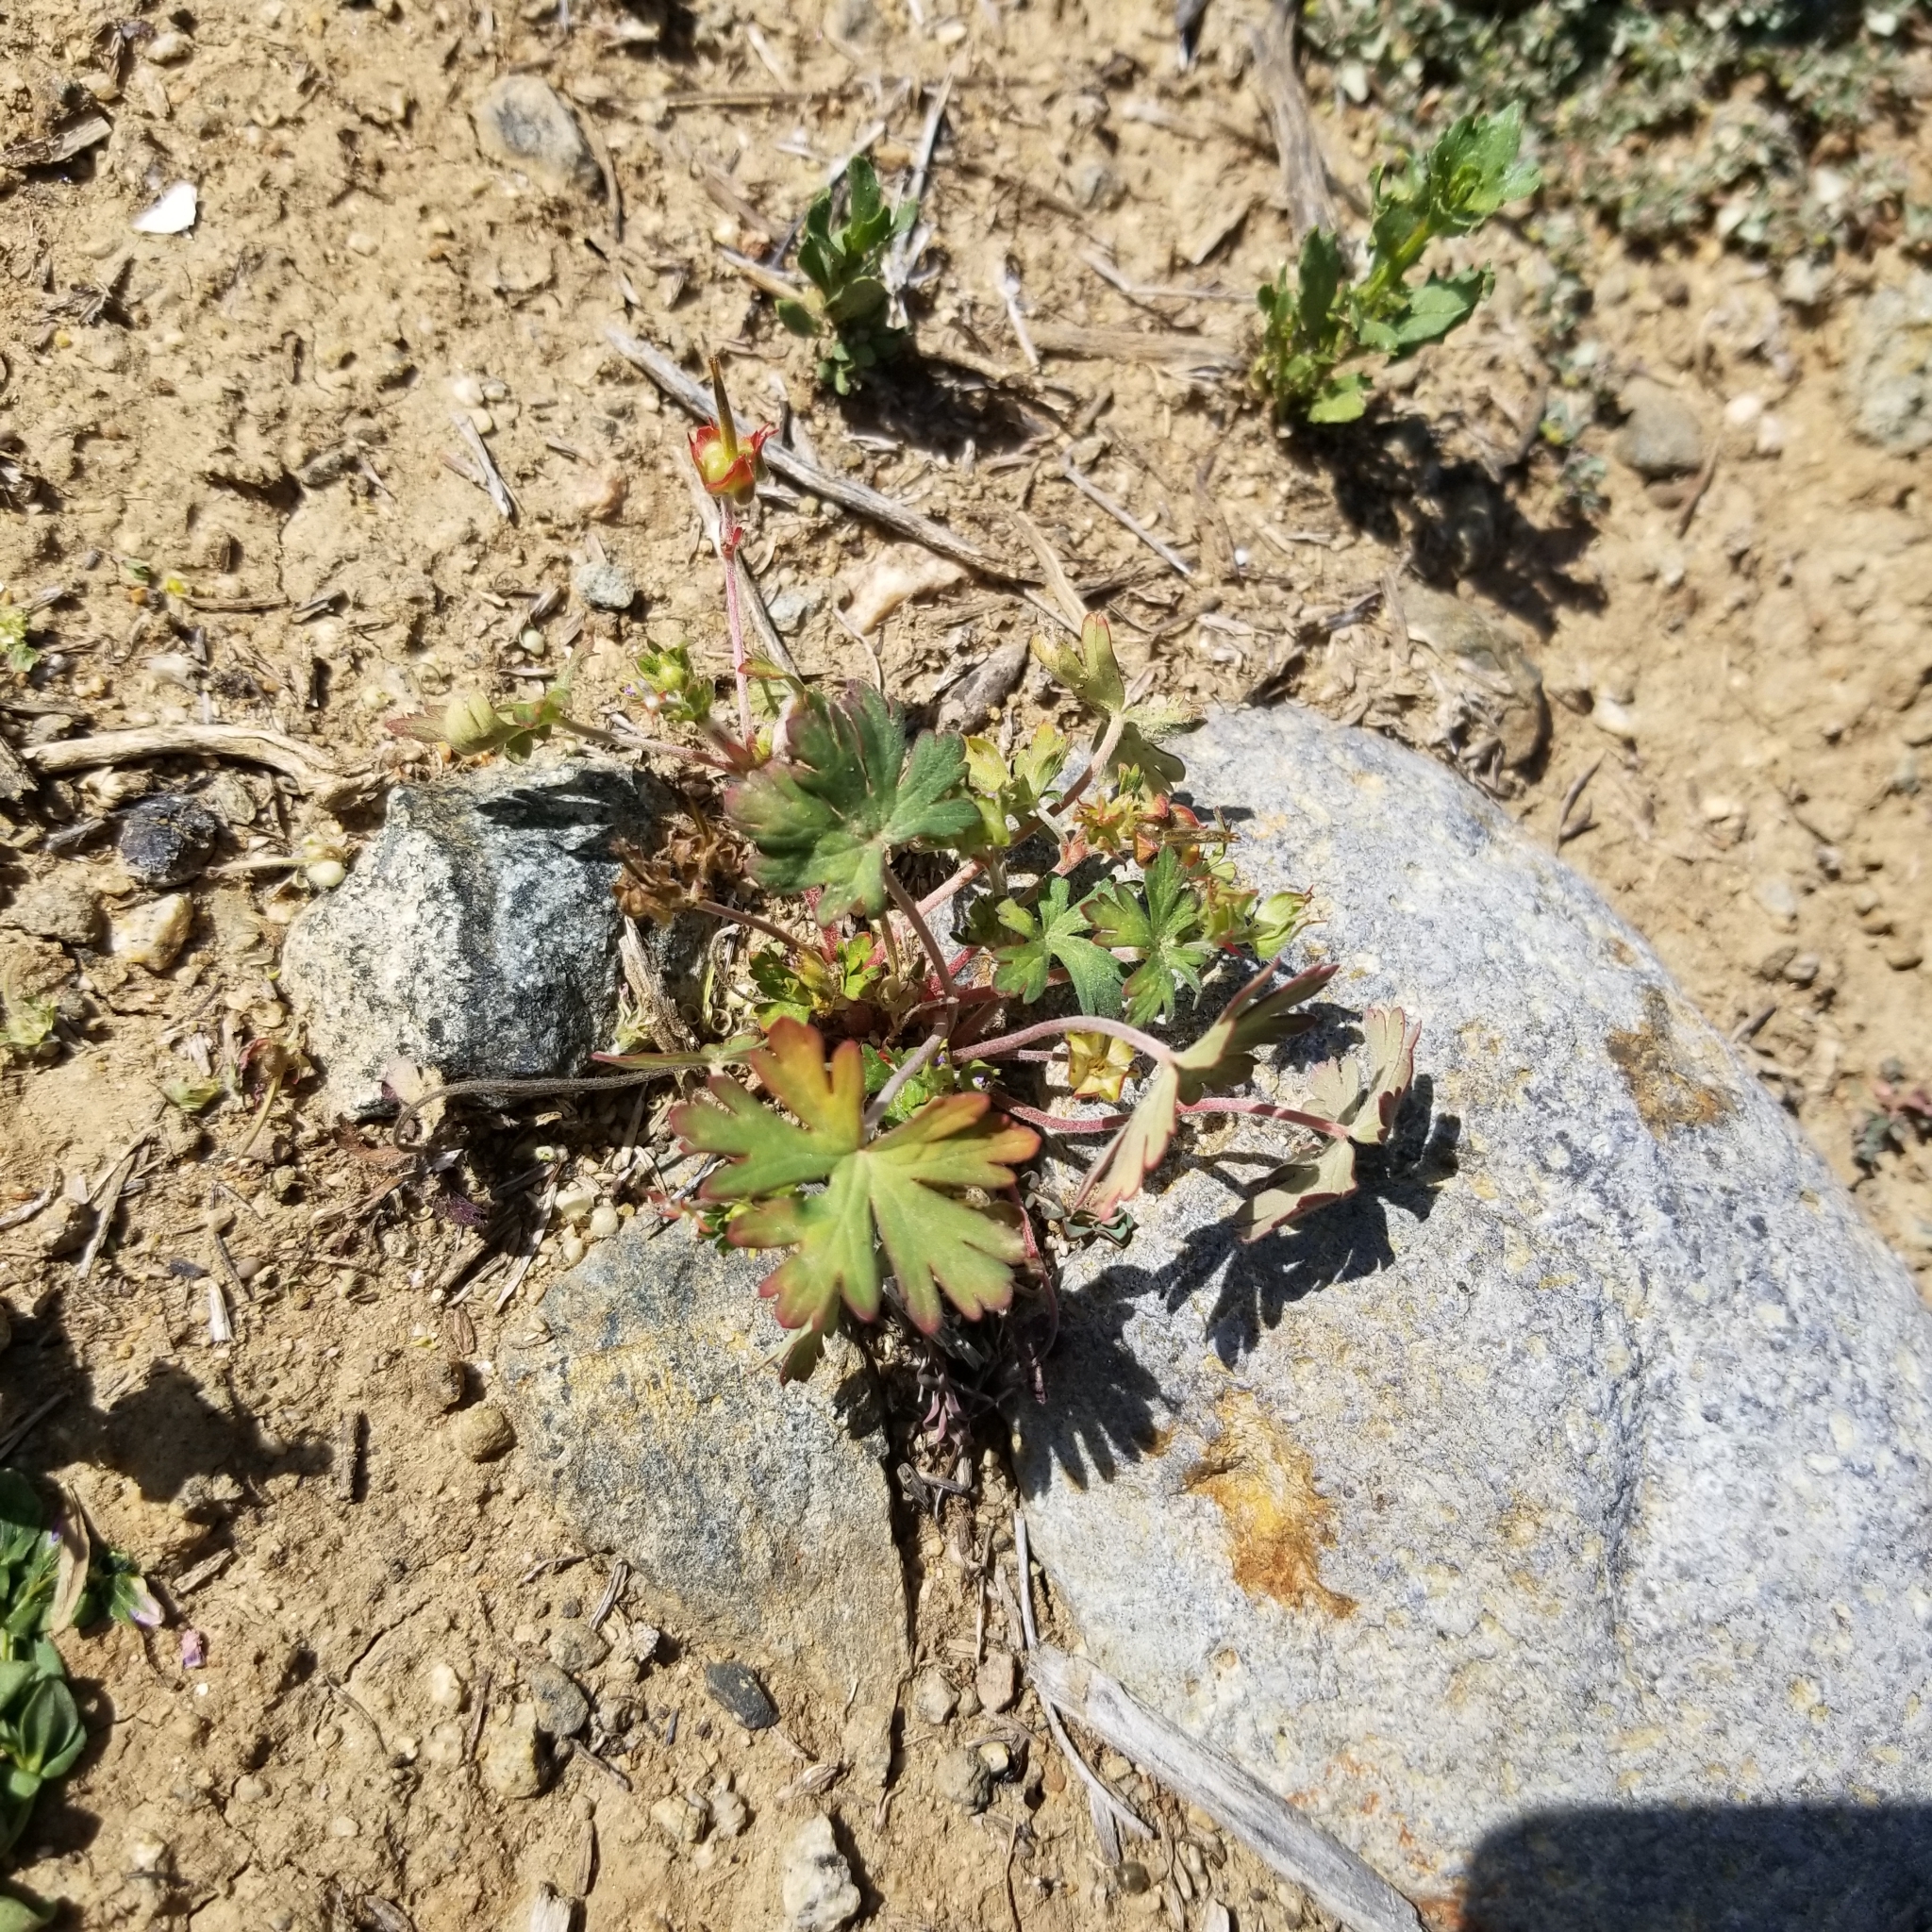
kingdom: Plantae
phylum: Tracheophyta
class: Magnoliopsida
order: Geraniales
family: Geraniaceae
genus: Geranium
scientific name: Geranium carolinianum
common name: Carolina crane's-bill
